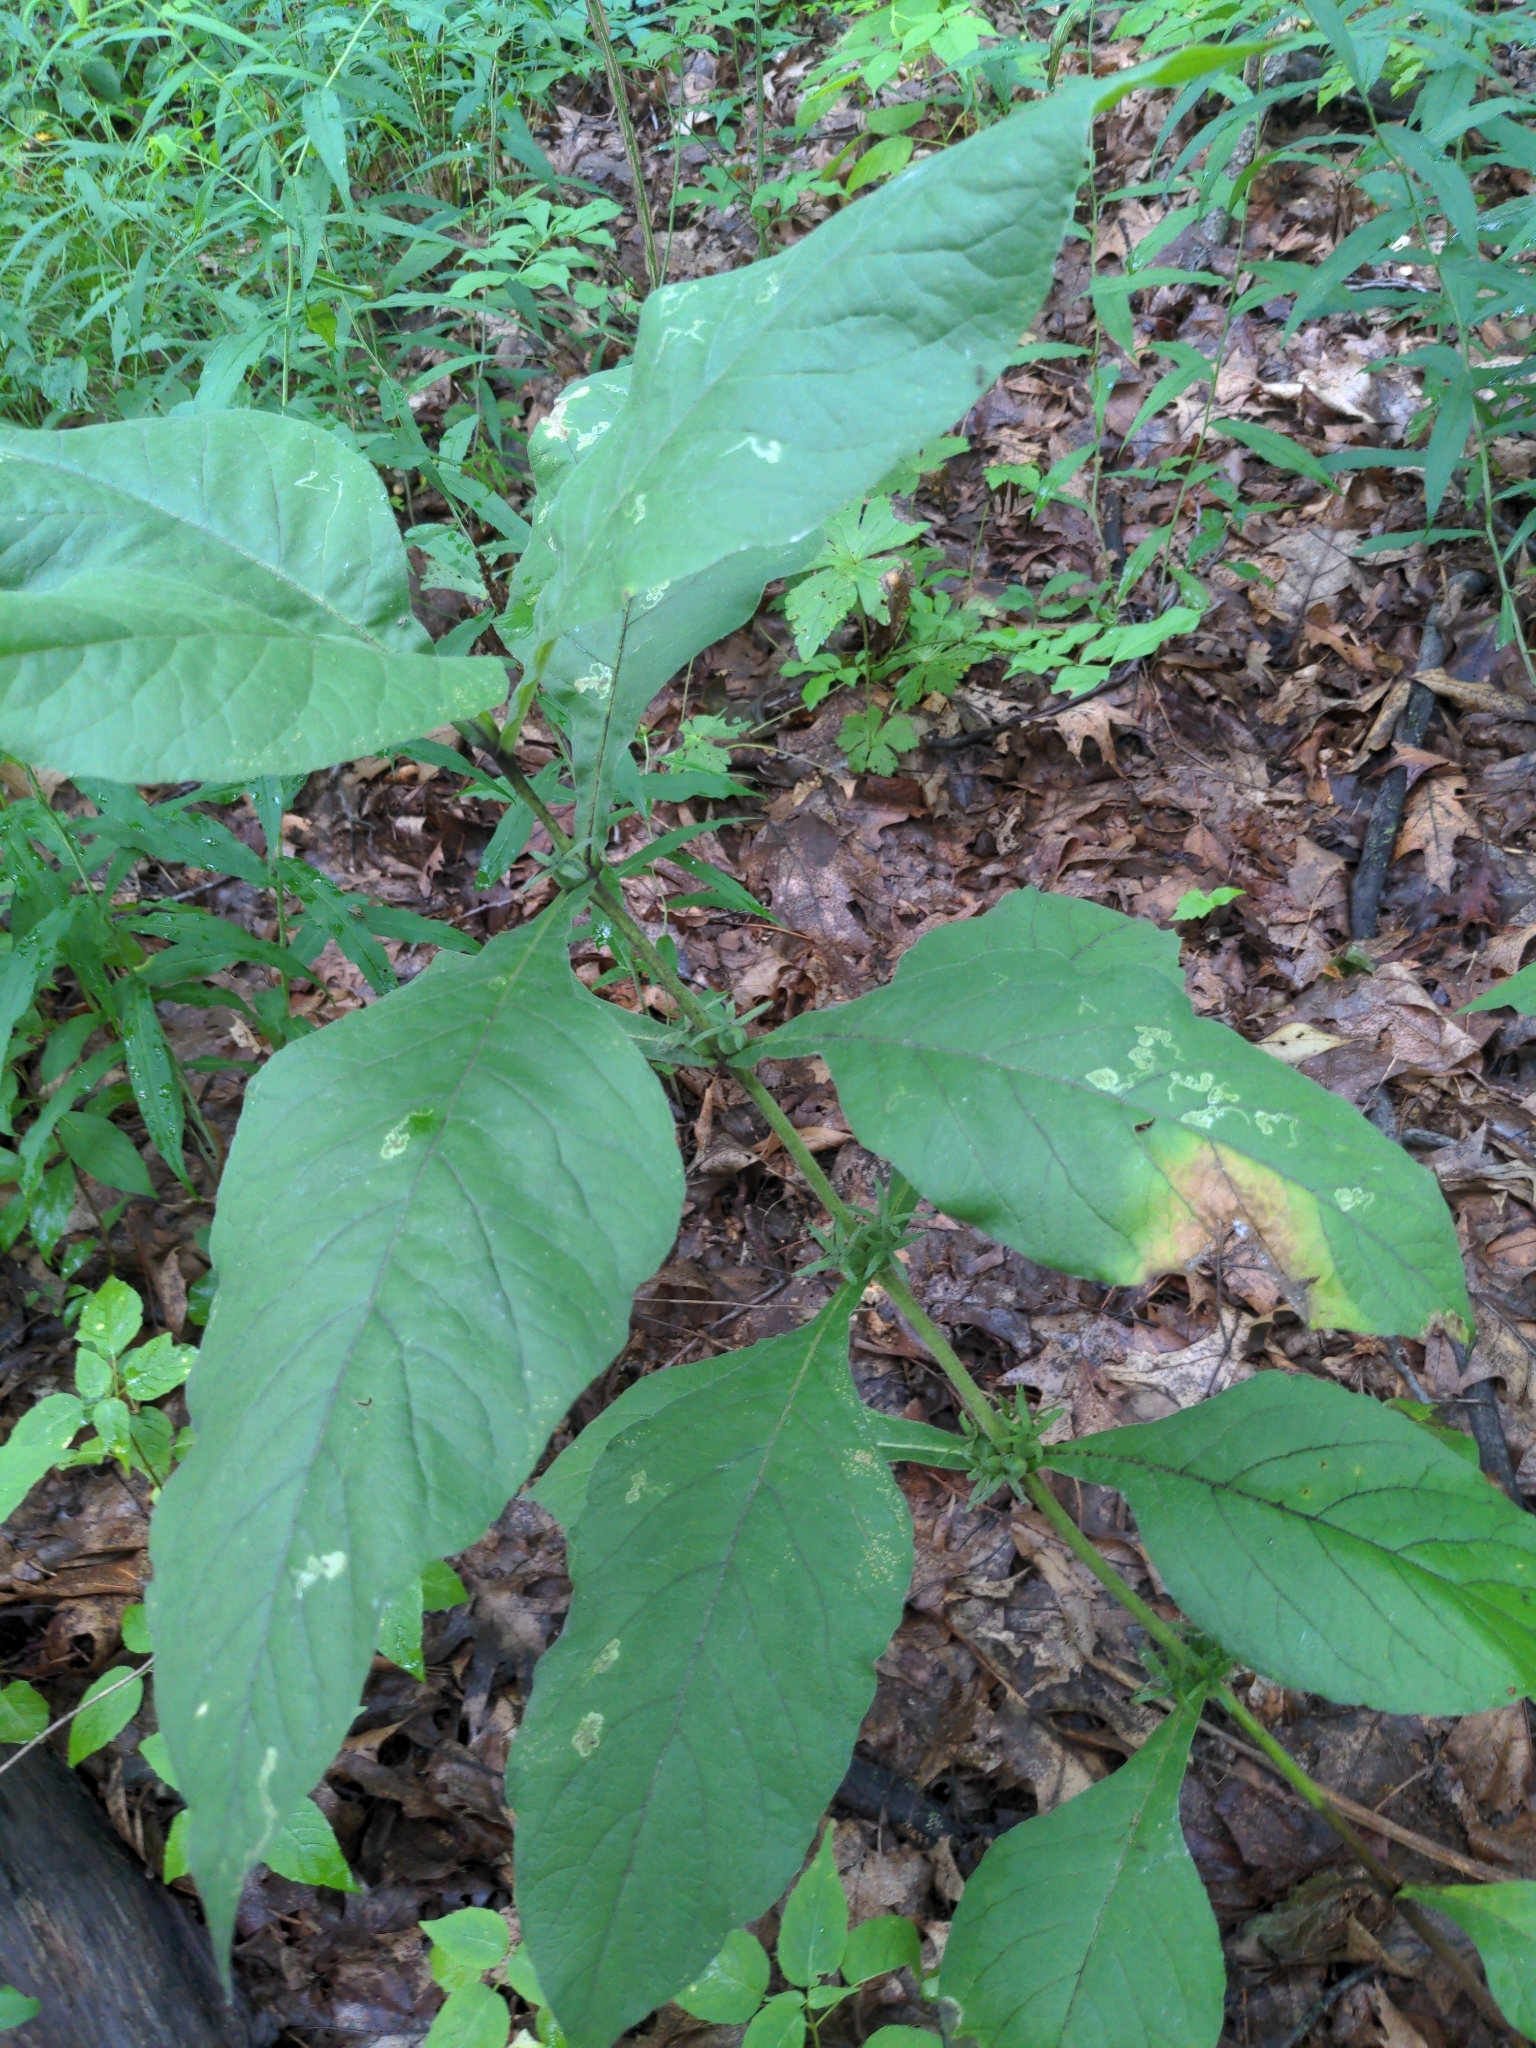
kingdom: Plantae
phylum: Tracheophyta
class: Magnoliopsida
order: Dipsacales
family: Caprifoliaceae
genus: Triosteum
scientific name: Triosteum aurantiacum
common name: Coffee tinker's-weed
